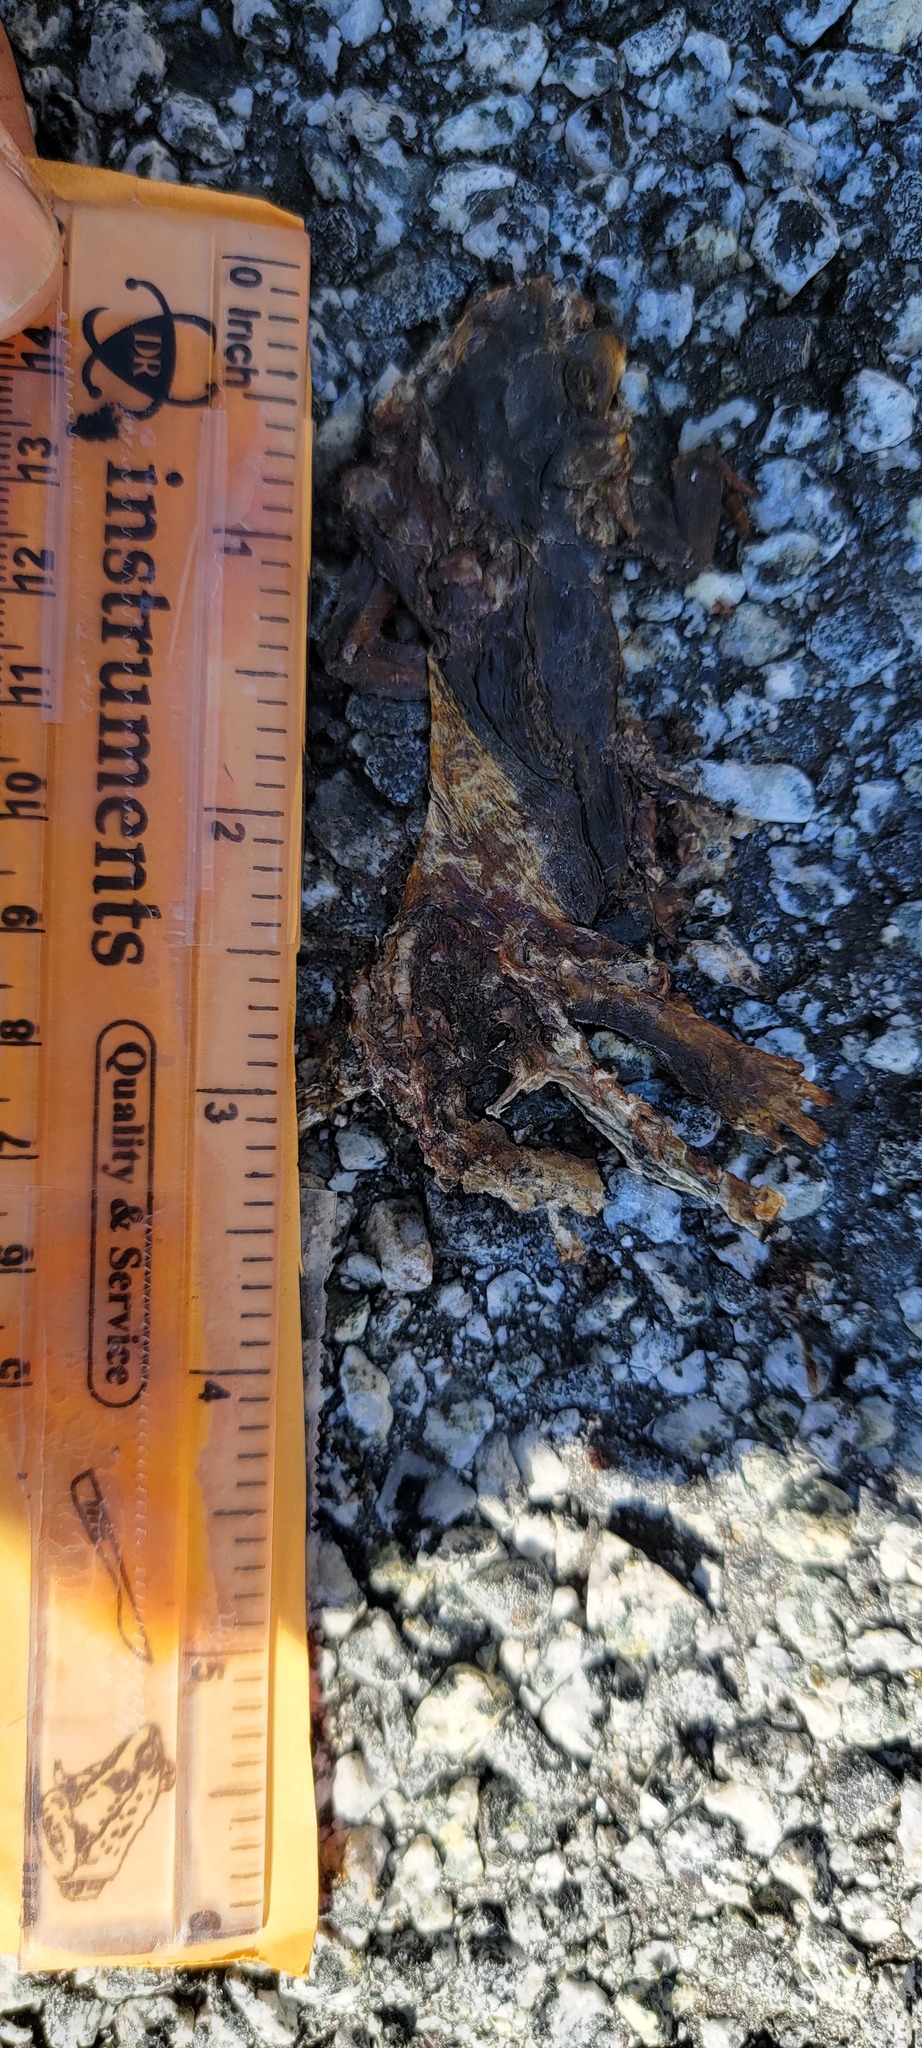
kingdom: Animalia
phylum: Chordata
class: Amphibia
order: Caudata
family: Salamandridae
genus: Taricha
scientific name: Taricha
